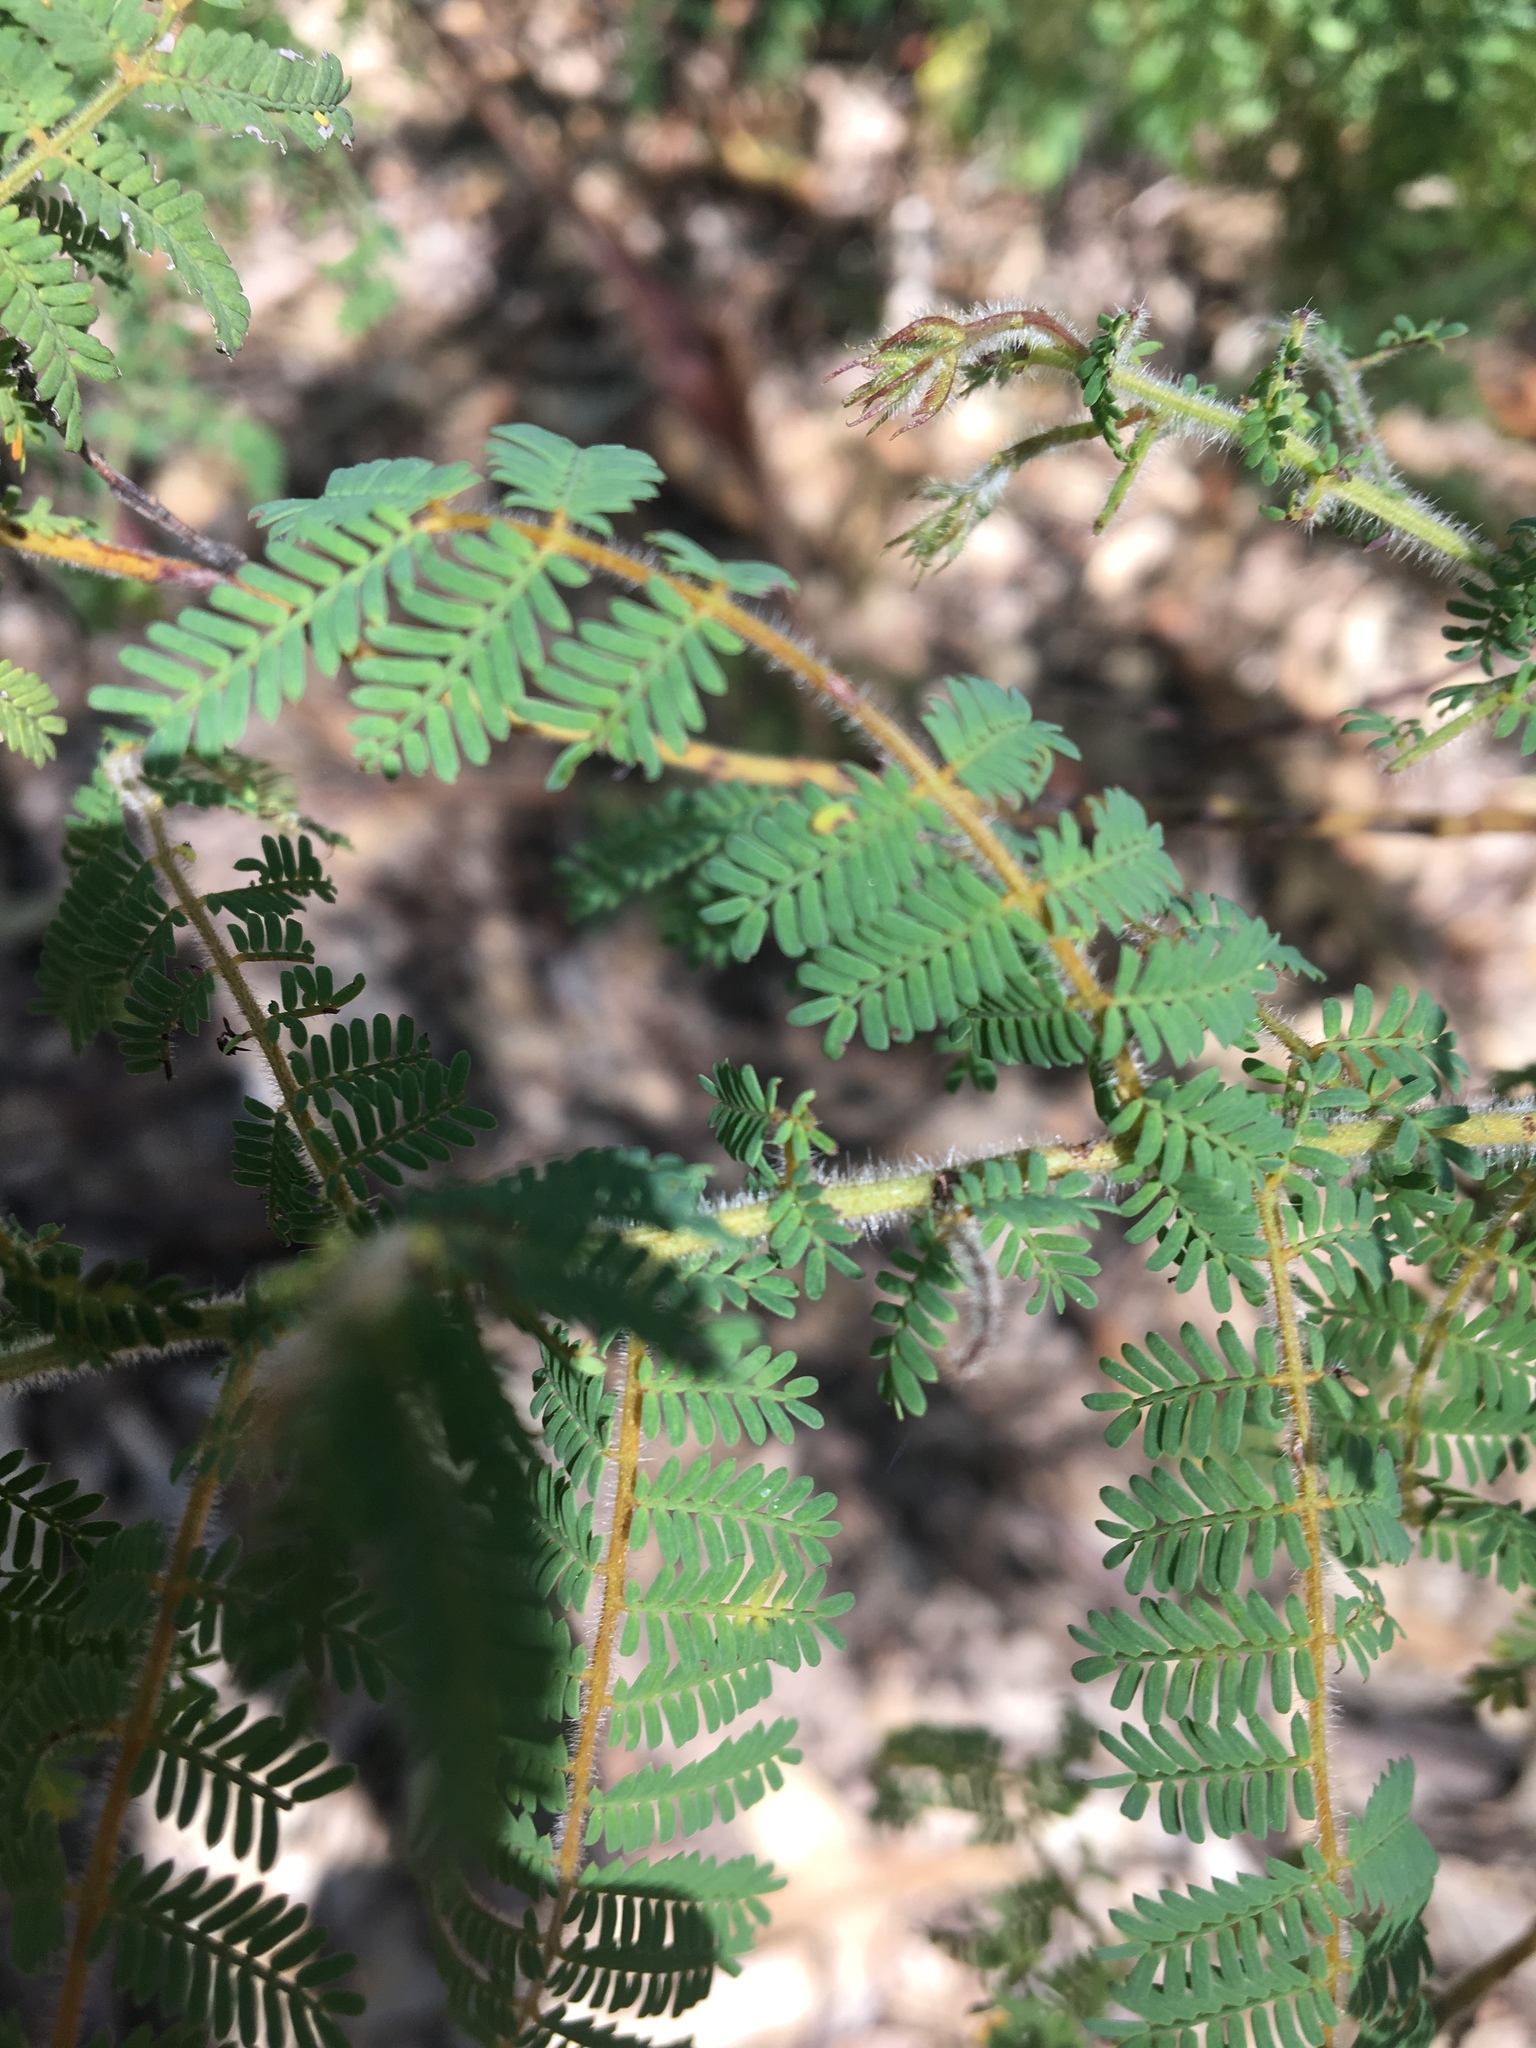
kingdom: Plantae
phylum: Tracheophyta
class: Magnoliopsida
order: Fabales
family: Fabaceae
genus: Acacia
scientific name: Acacia pubescens
